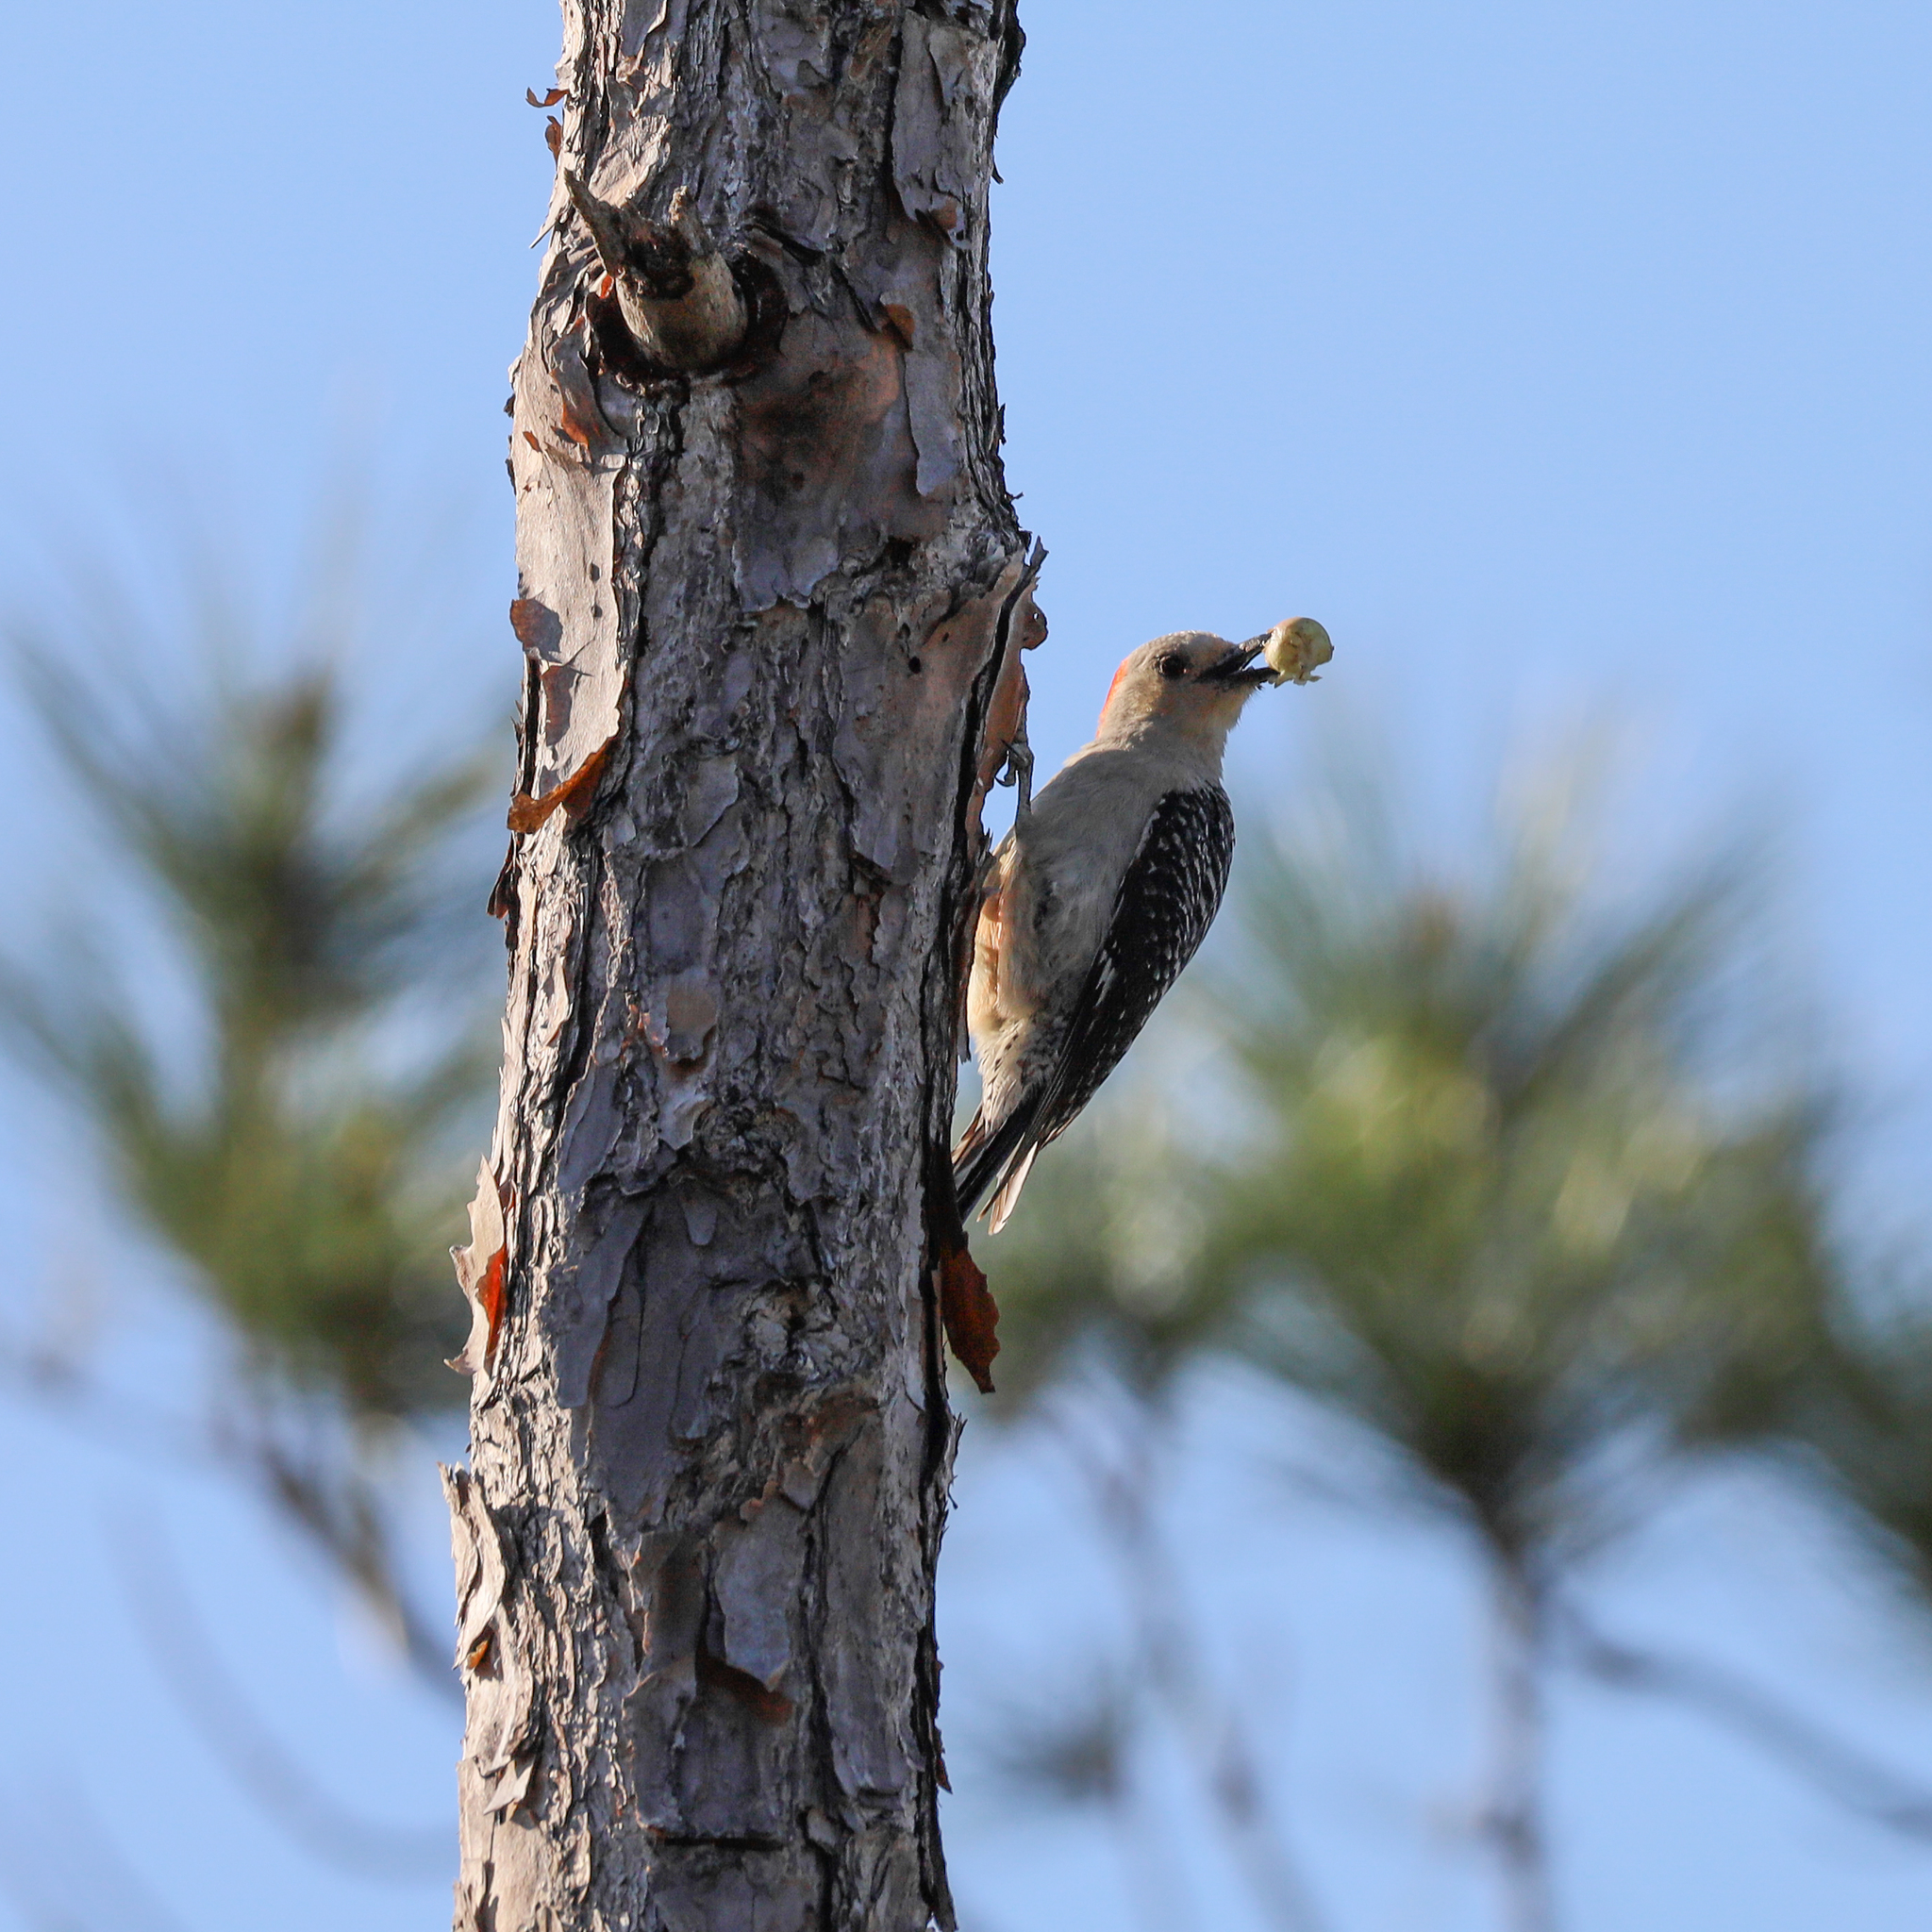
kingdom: Animalia
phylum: Chordata
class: Aves
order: Piciformes
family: Picidae
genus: Melanerpes
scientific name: Melanerpes carolinus
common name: Red-bellied woodpecker
